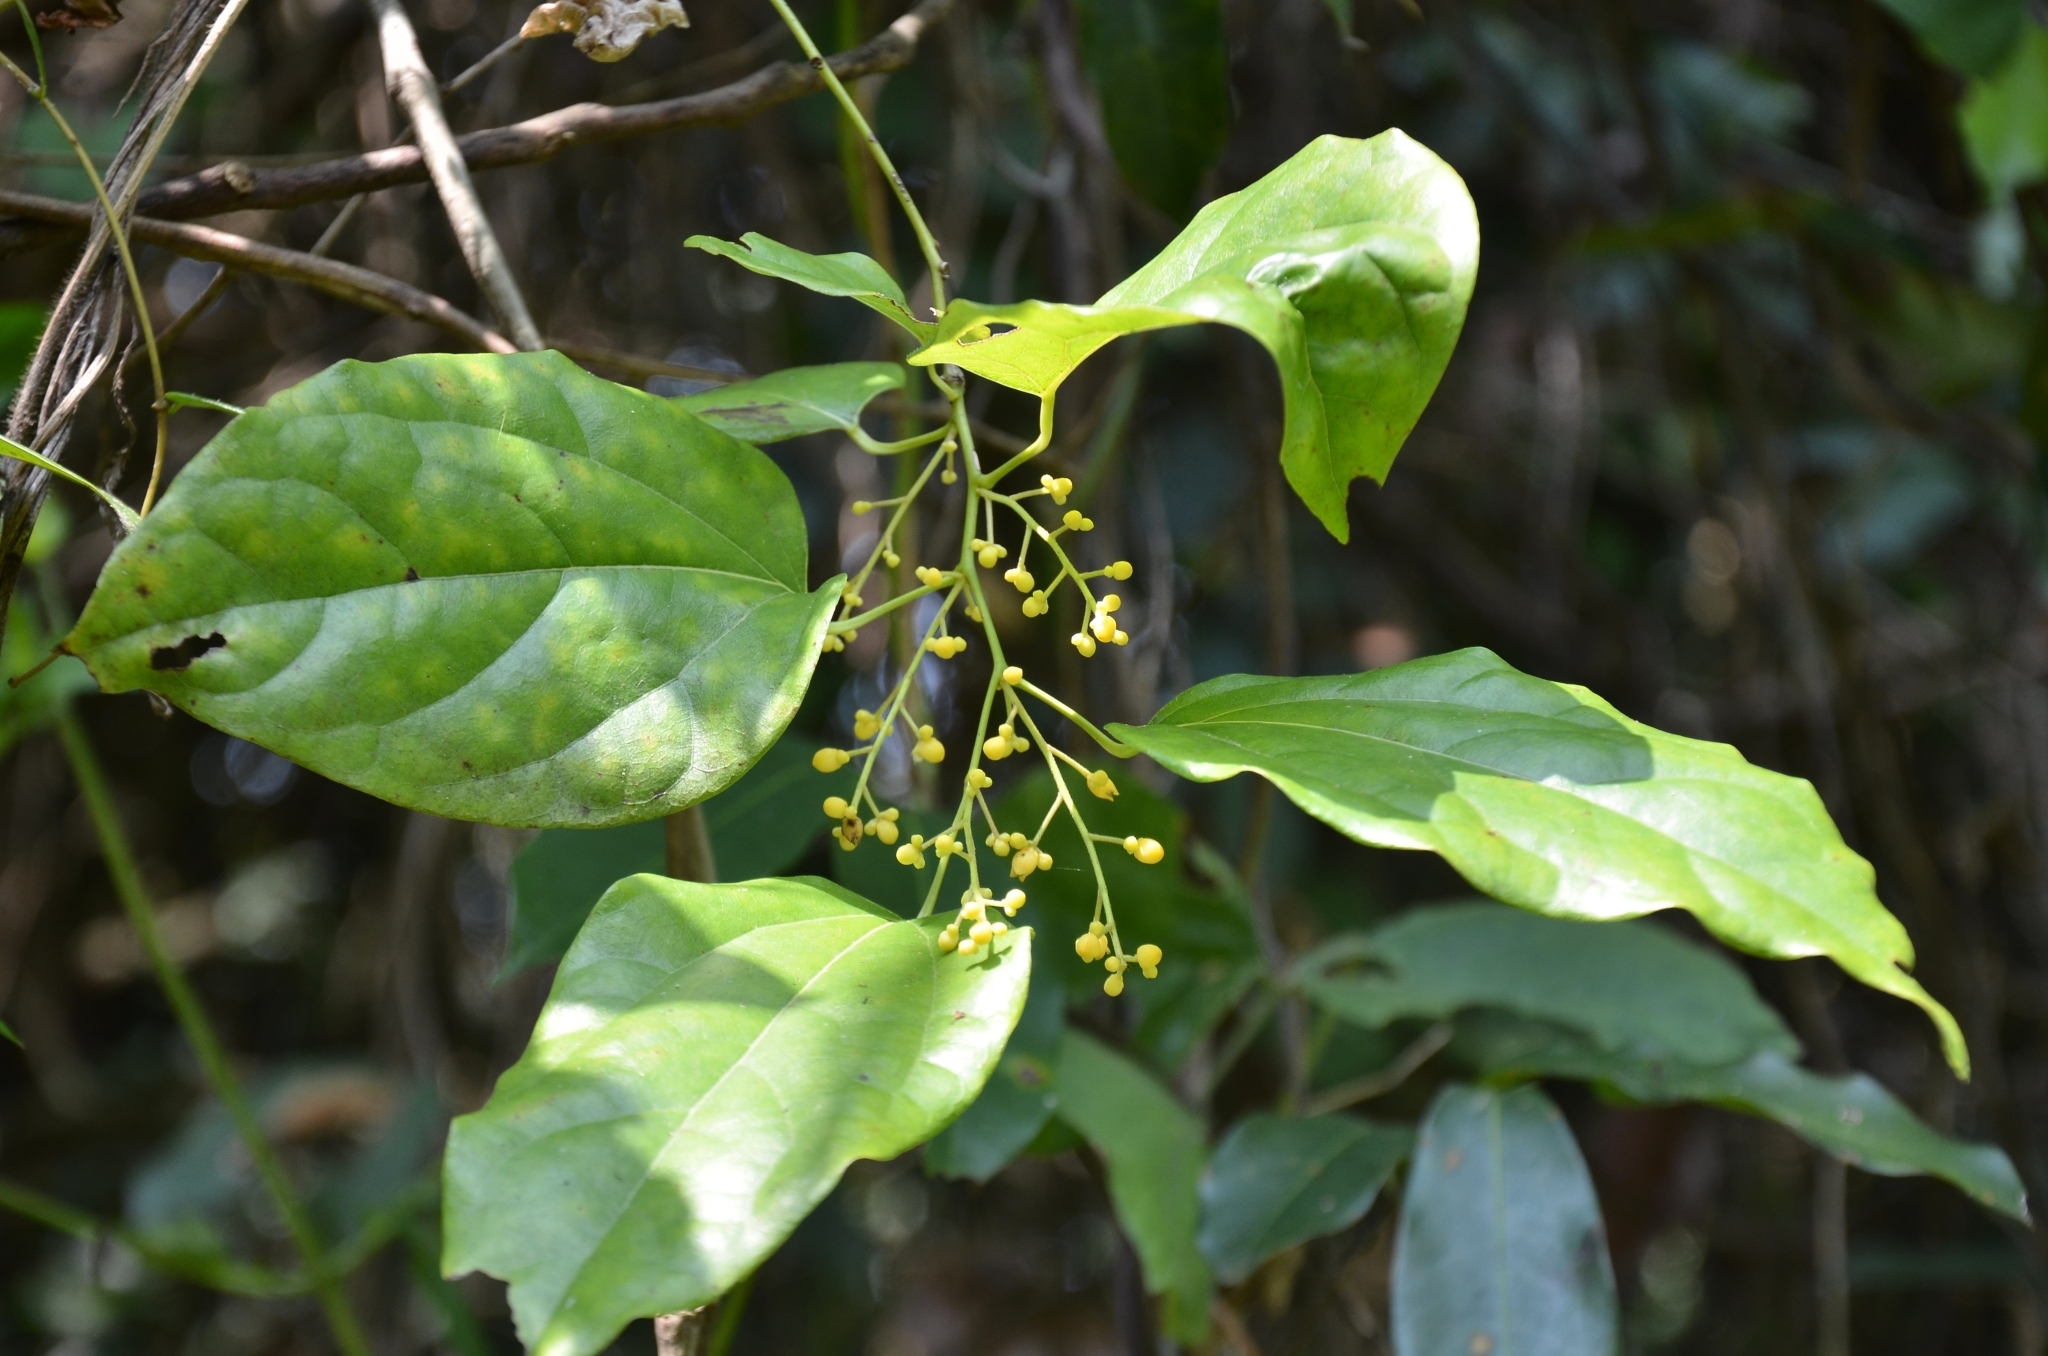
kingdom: Plantae
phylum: Tracheophyta
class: Magnoliopsida
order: Ranunculales
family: Menispermaceae
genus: Tiliacora
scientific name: Tiliacora acuminata
